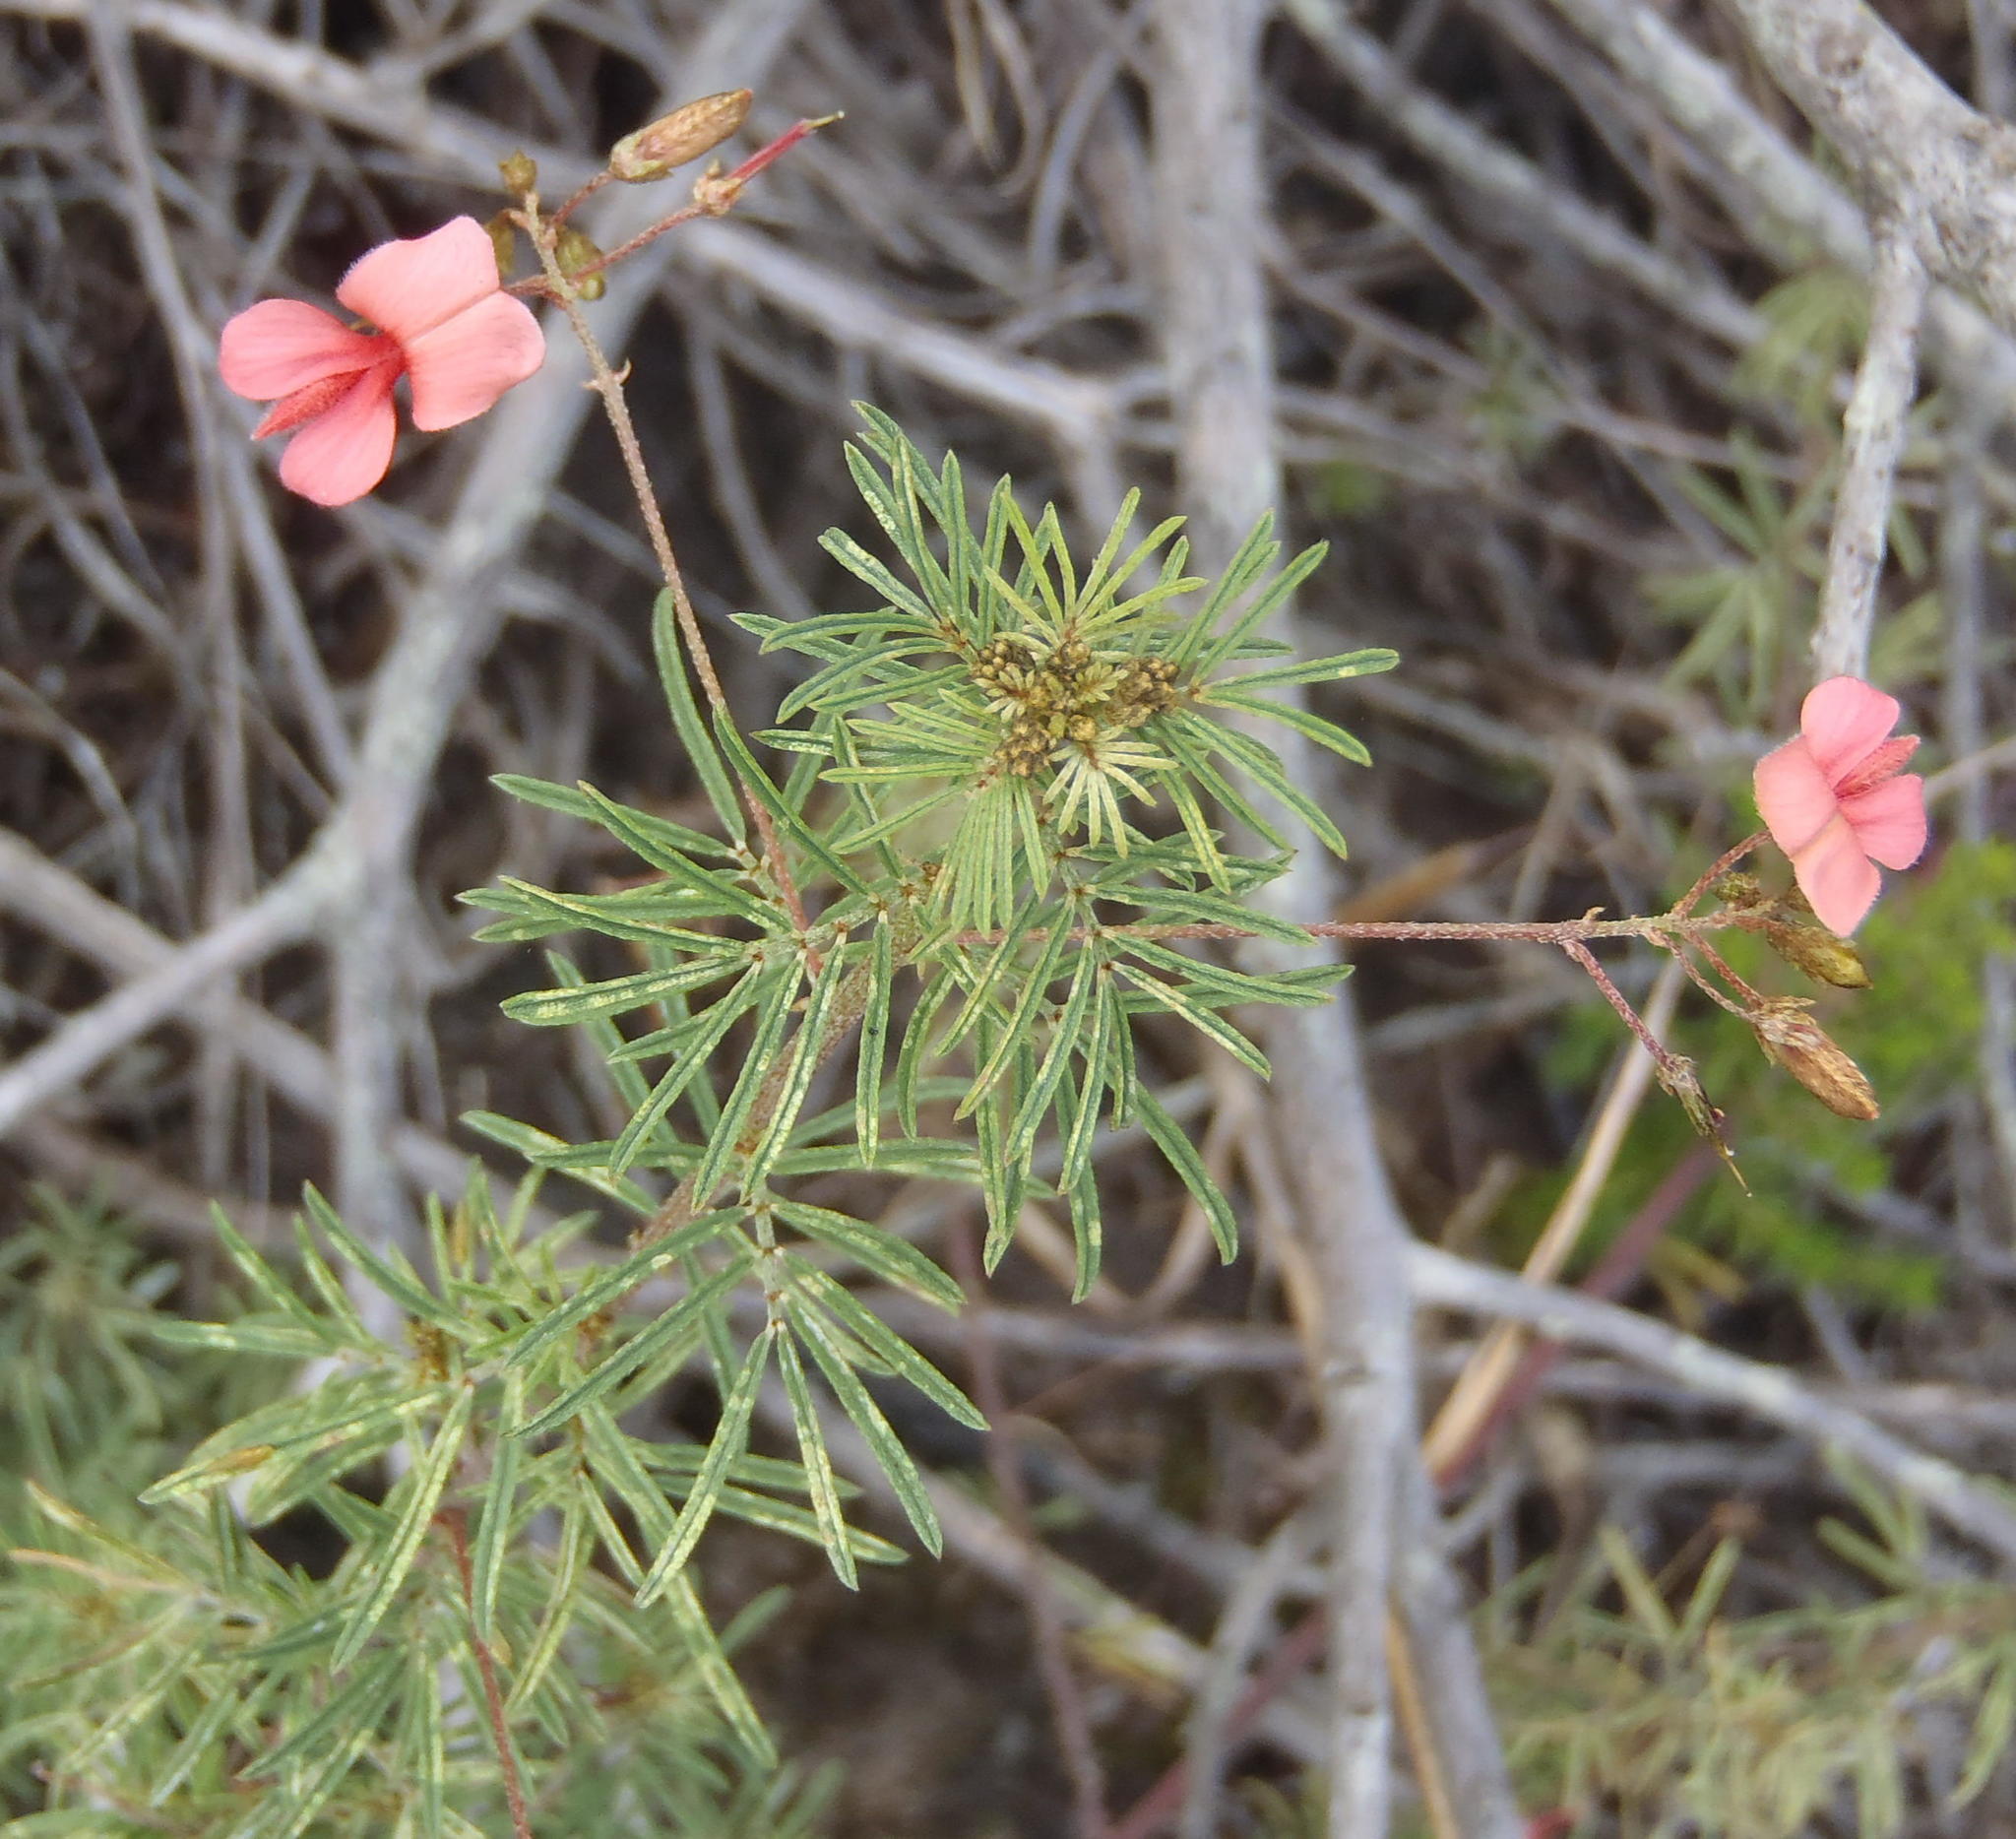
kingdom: Plantae
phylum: Tracheophyta
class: Magnoliopsida
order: Fabales
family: Fabaceae
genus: Indigofera
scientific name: Indigofera verrucosa
